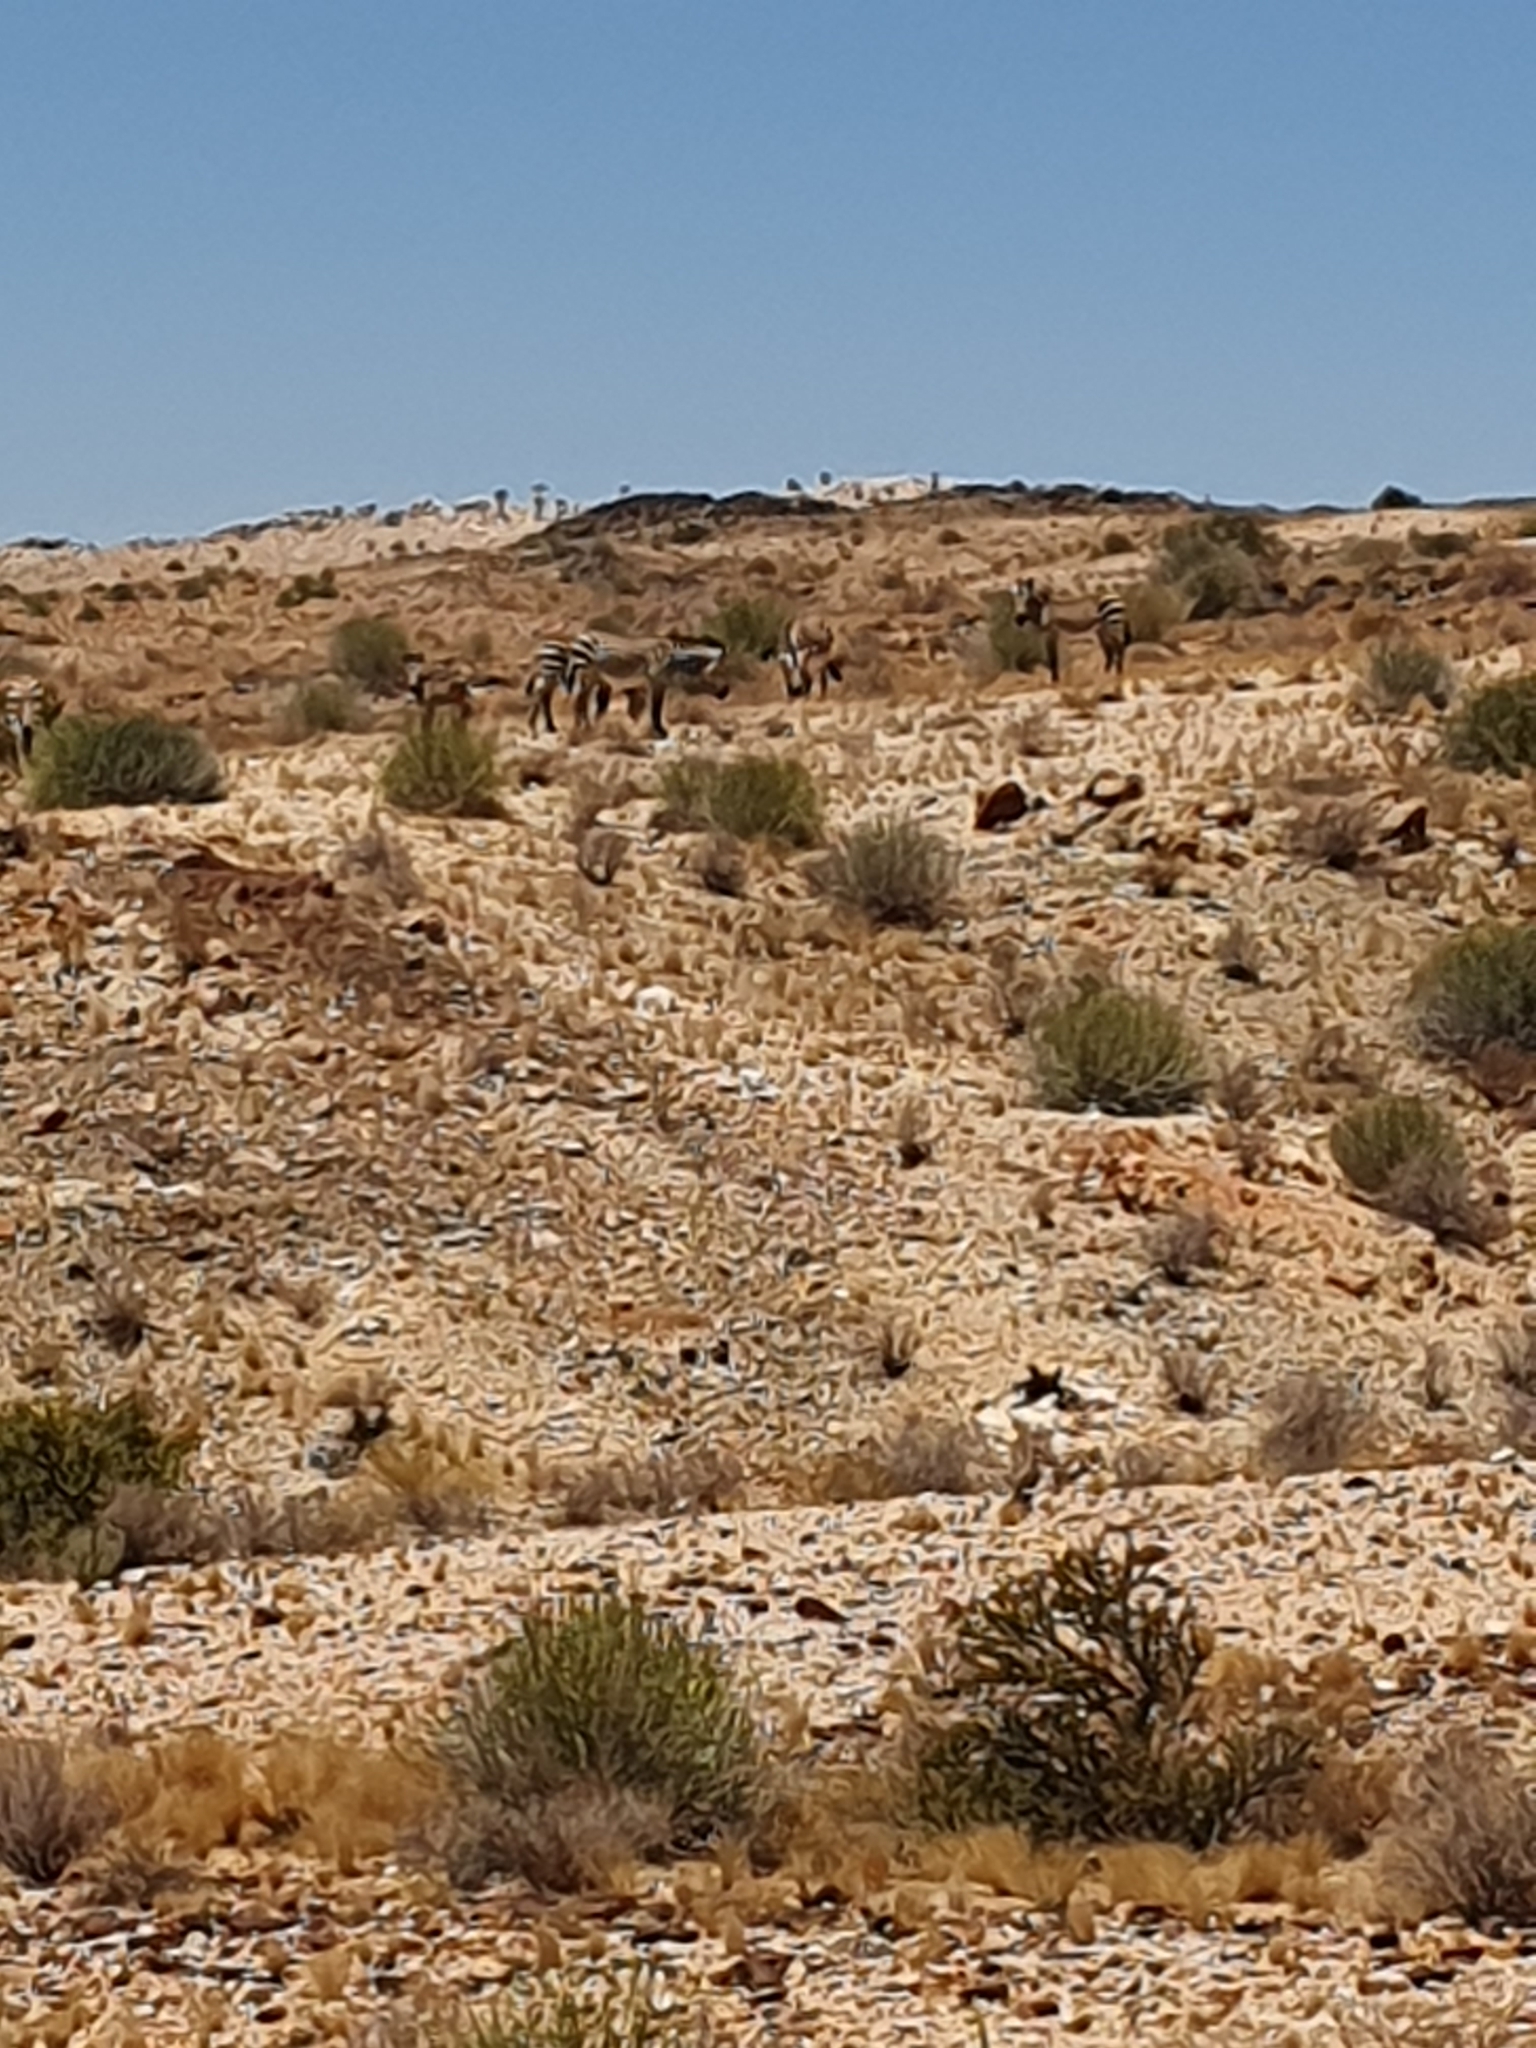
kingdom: Animalia
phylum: Chordata
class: Mammalia
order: Perissodactyla
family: Equidae
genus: Equus
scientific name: Equus hartmannae
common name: Hartmann's mountain zebra
